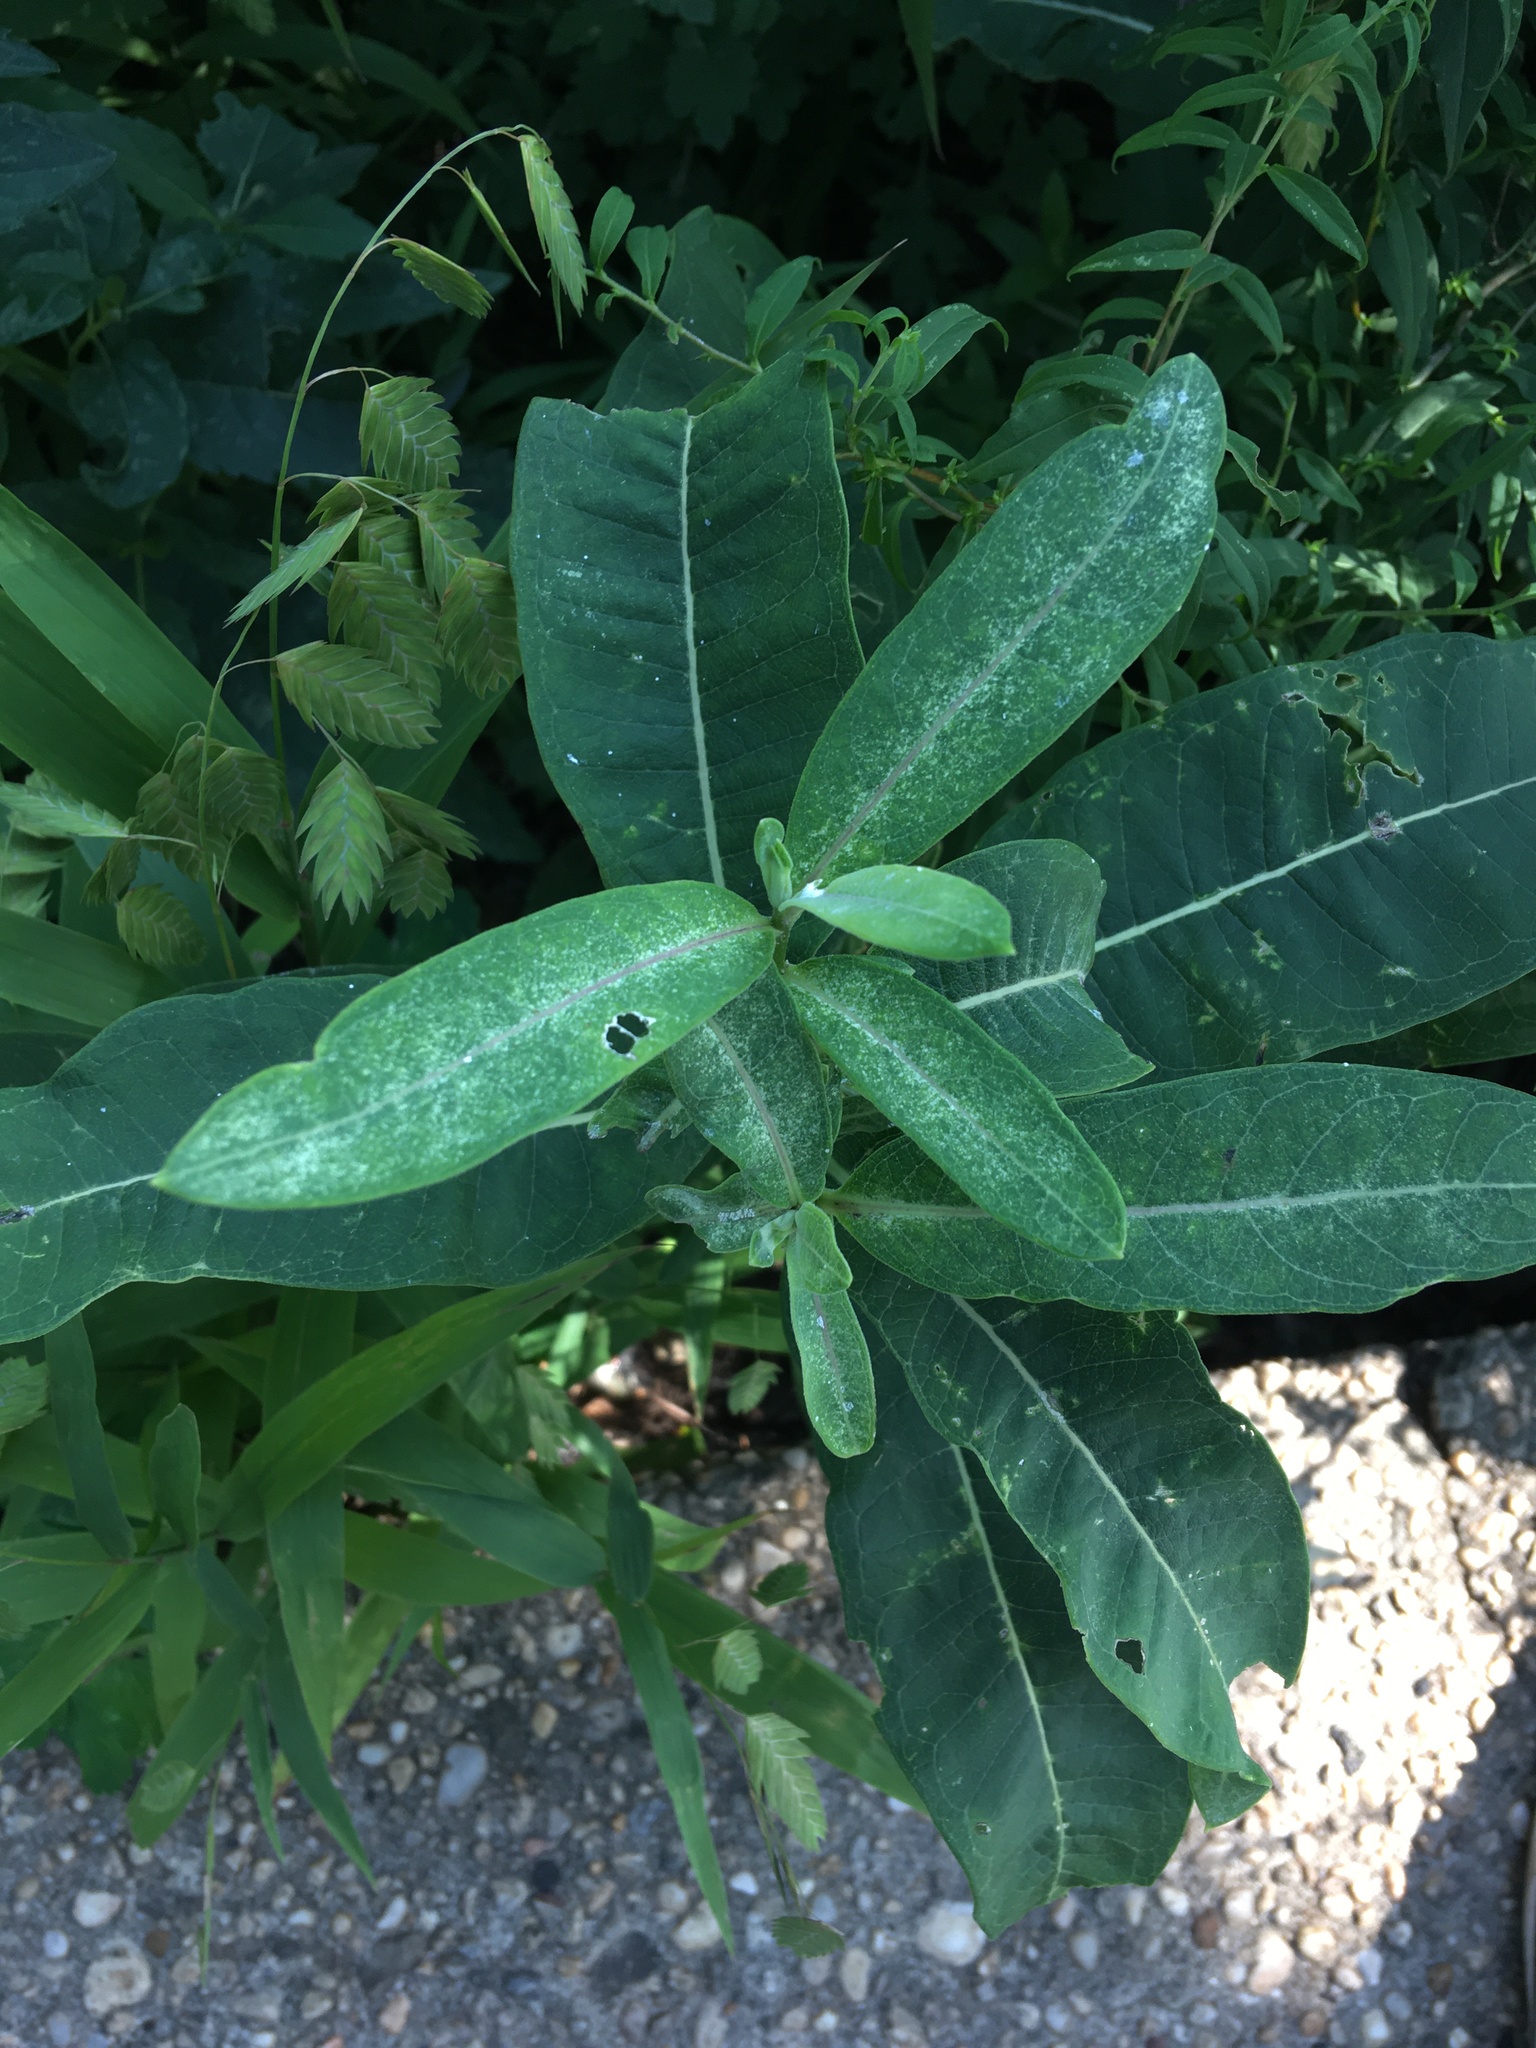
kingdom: Plantae
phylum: Tracheophyta
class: Magnoliopsida
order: Gentianales
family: Apocynaceae
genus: Asclepias
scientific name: Asclepias syriaca
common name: Common milkweed
